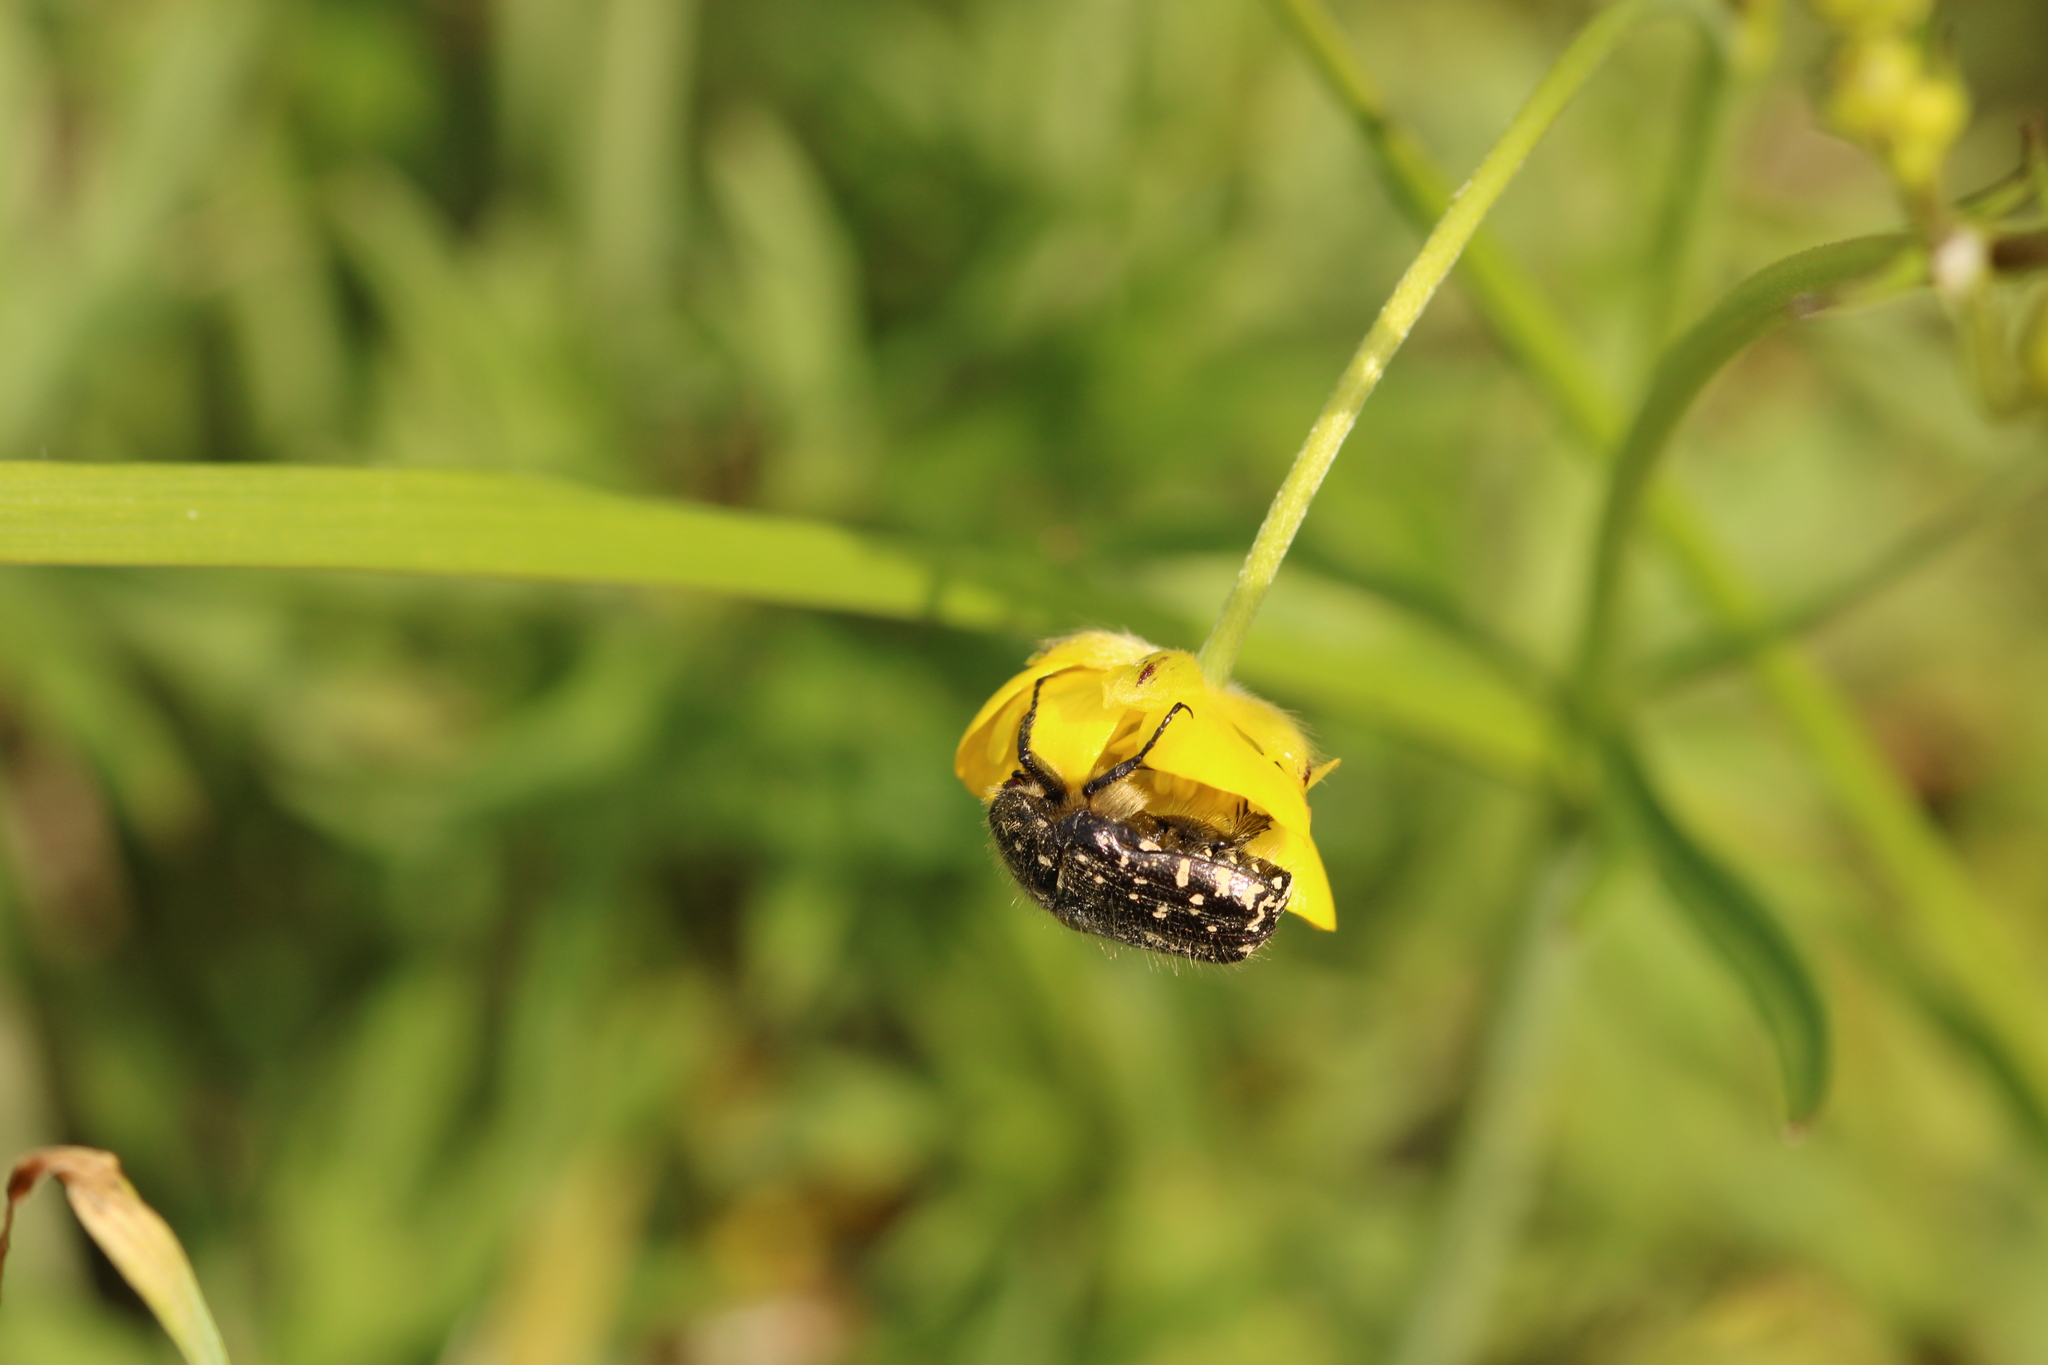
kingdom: Animalia
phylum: Arthropoda
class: Insecta
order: Coleoptera
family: Scarabaeidae
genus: Oxythyrea
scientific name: Oxythyrea funesta
